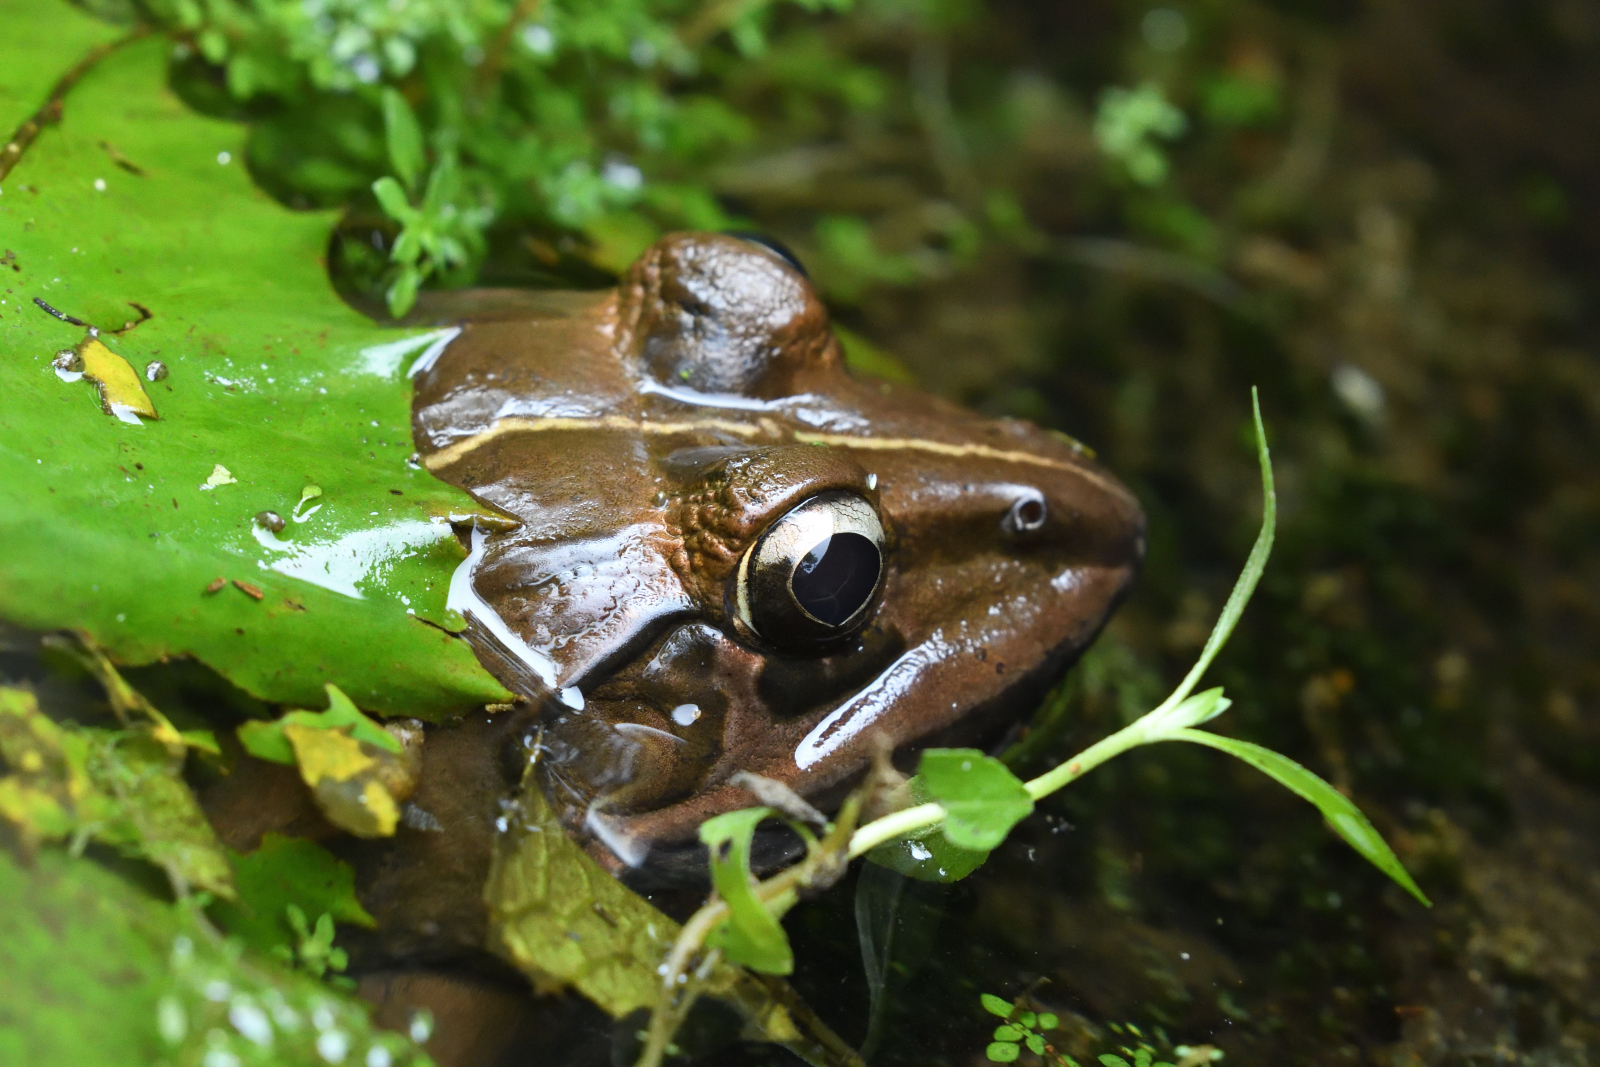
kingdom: Animalia
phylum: Chordata
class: Amphibia
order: Anura
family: Dicroglossidae
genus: Hoplobatrachus
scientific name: Hoplobatrachus tigerinus
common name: Indian bullfrog
